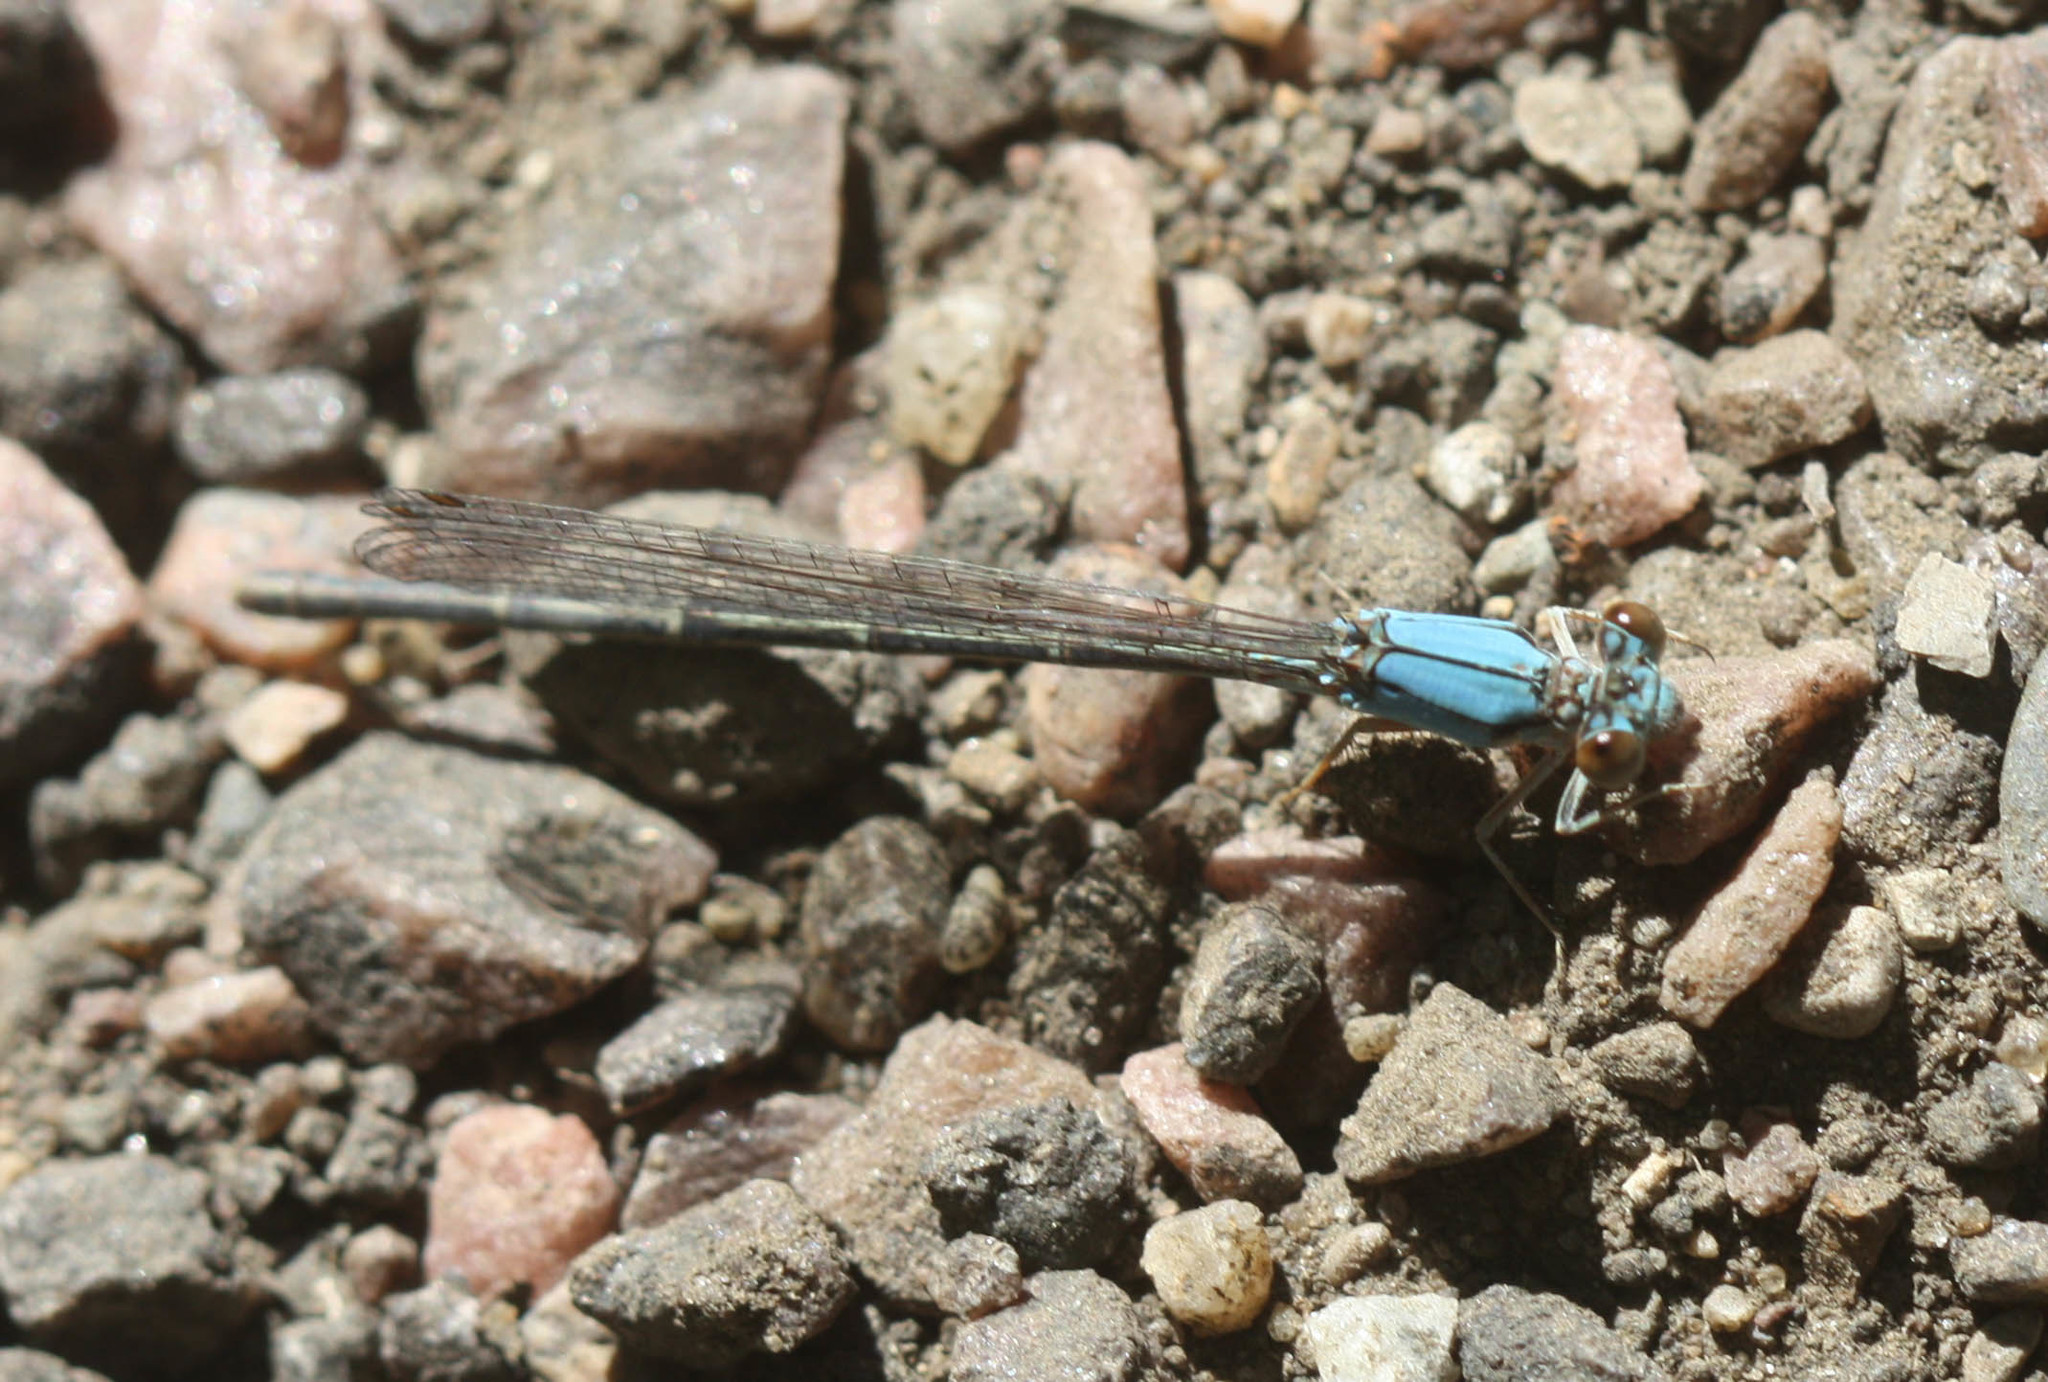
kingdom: Animalia
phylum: Arthropoda
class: Insecta
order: Odonata
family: Coenagrionidae
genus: Argia
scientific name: Argia apicalis
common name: Blue-fronted dancer
